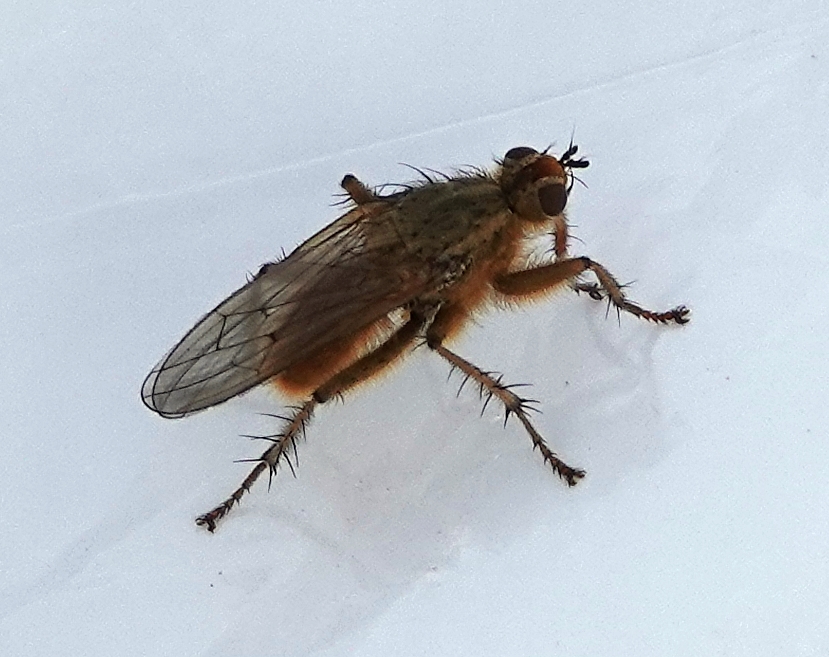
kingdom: Animalia
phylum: Arthropoda
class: Insecta
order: Diptera
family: Scathophagidae
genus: Scathophaga
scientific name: Scathophaga stercoraria
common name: Yellow dung fly
